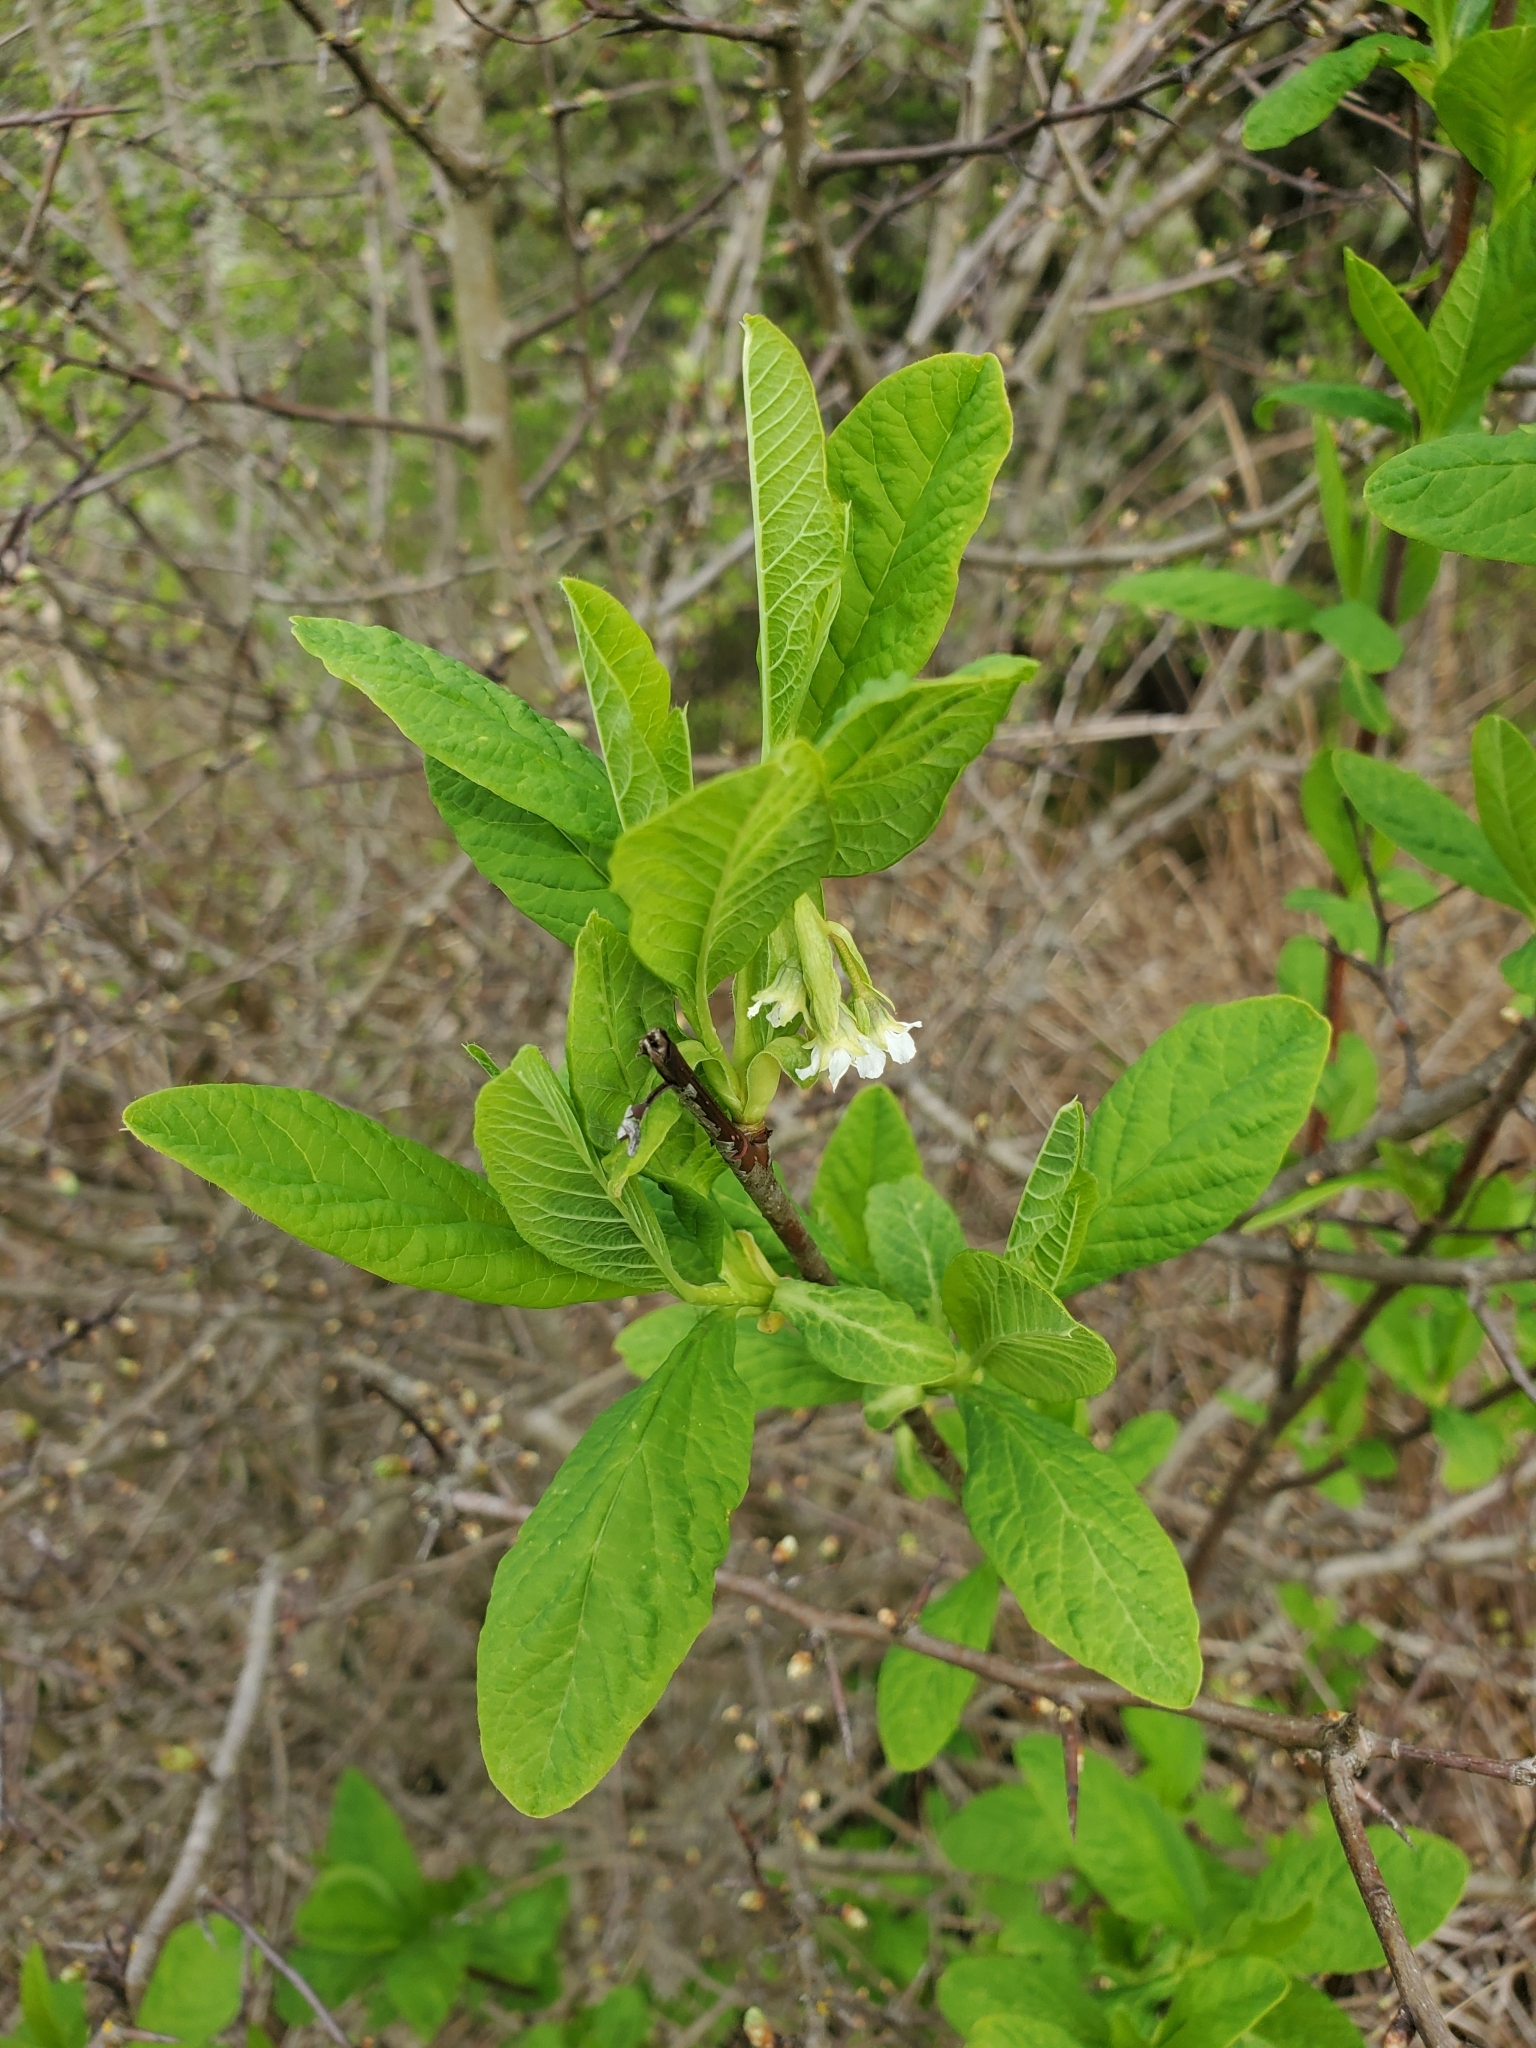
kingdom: Plantae
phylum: Tracheophyta
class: Magnoliopsida
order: Rosales
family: Rosaceae
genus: Oemleria
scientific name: Oemleria cerasiformis
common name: Osoberry
